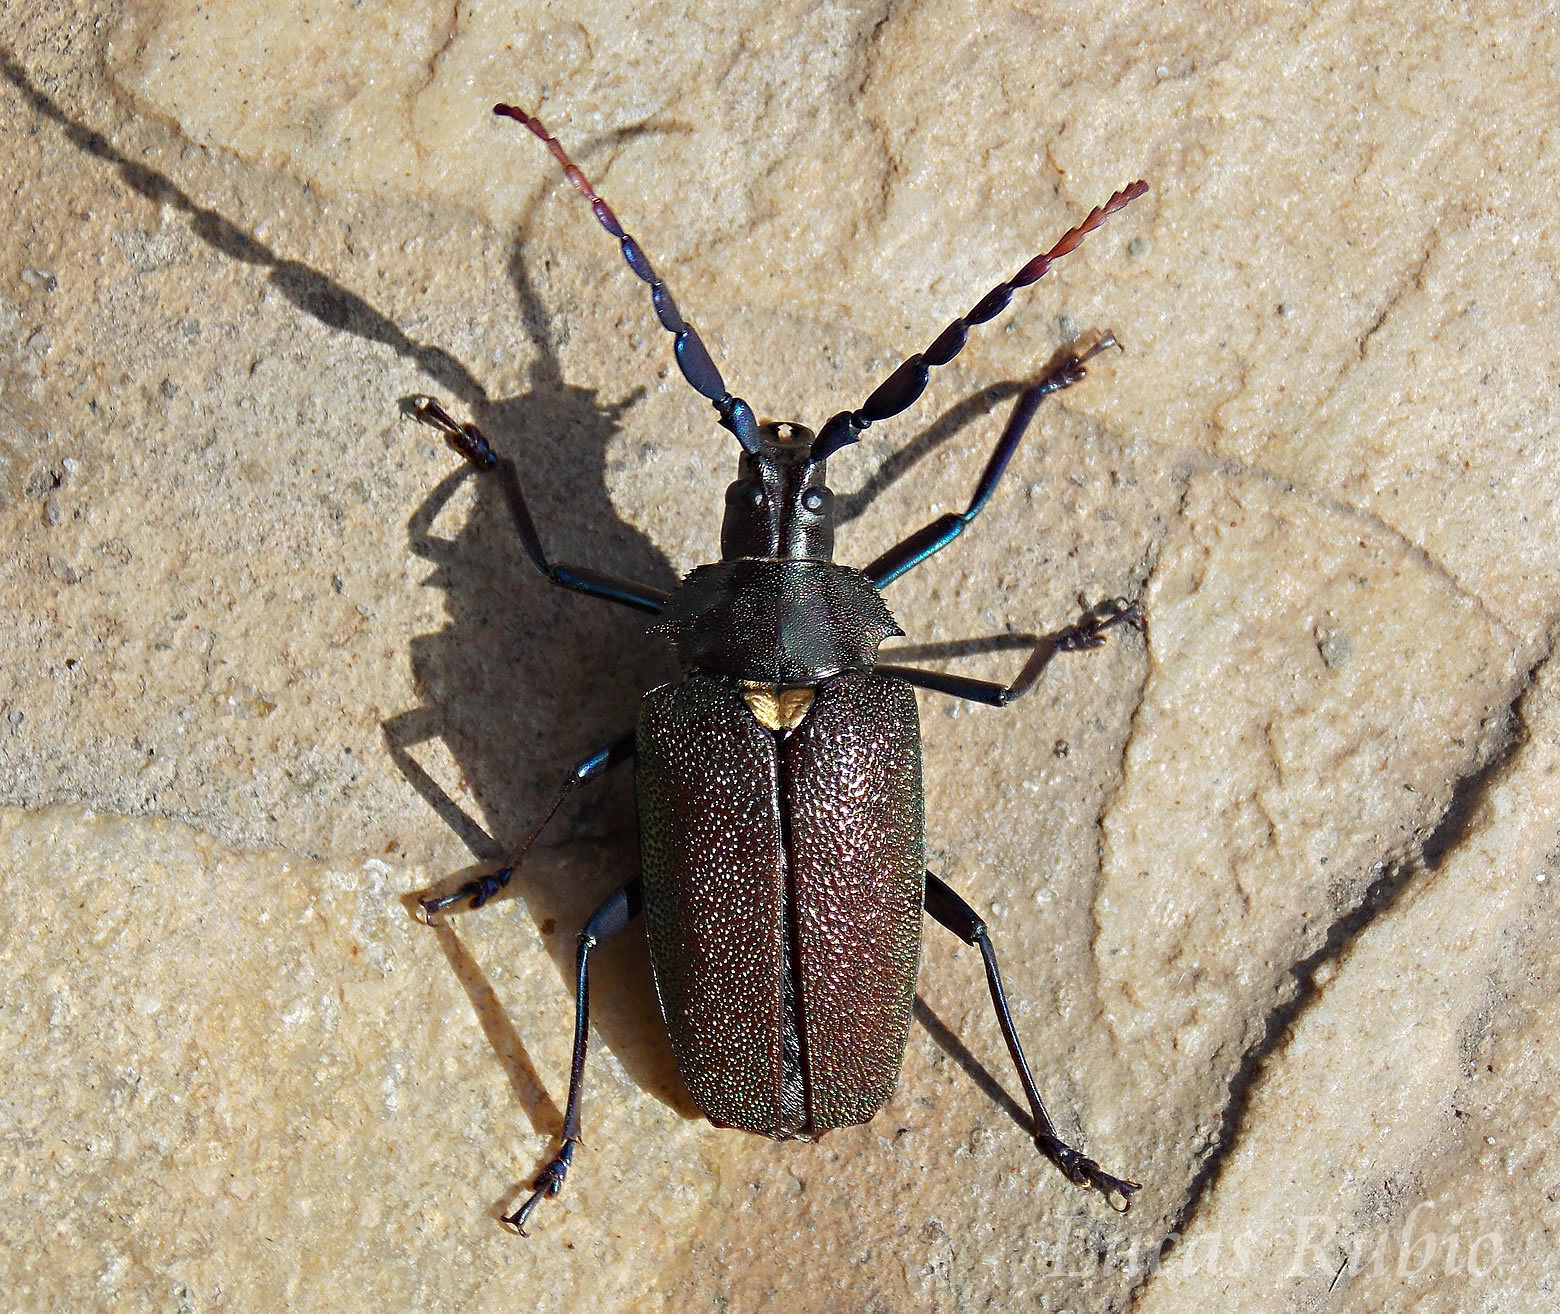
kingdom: Animalia
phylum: Arthropoda
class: Insecta
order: Coleoptera
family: Cerambycidae
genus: Praemallaspis
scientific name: Praemallaspis leucaspis
